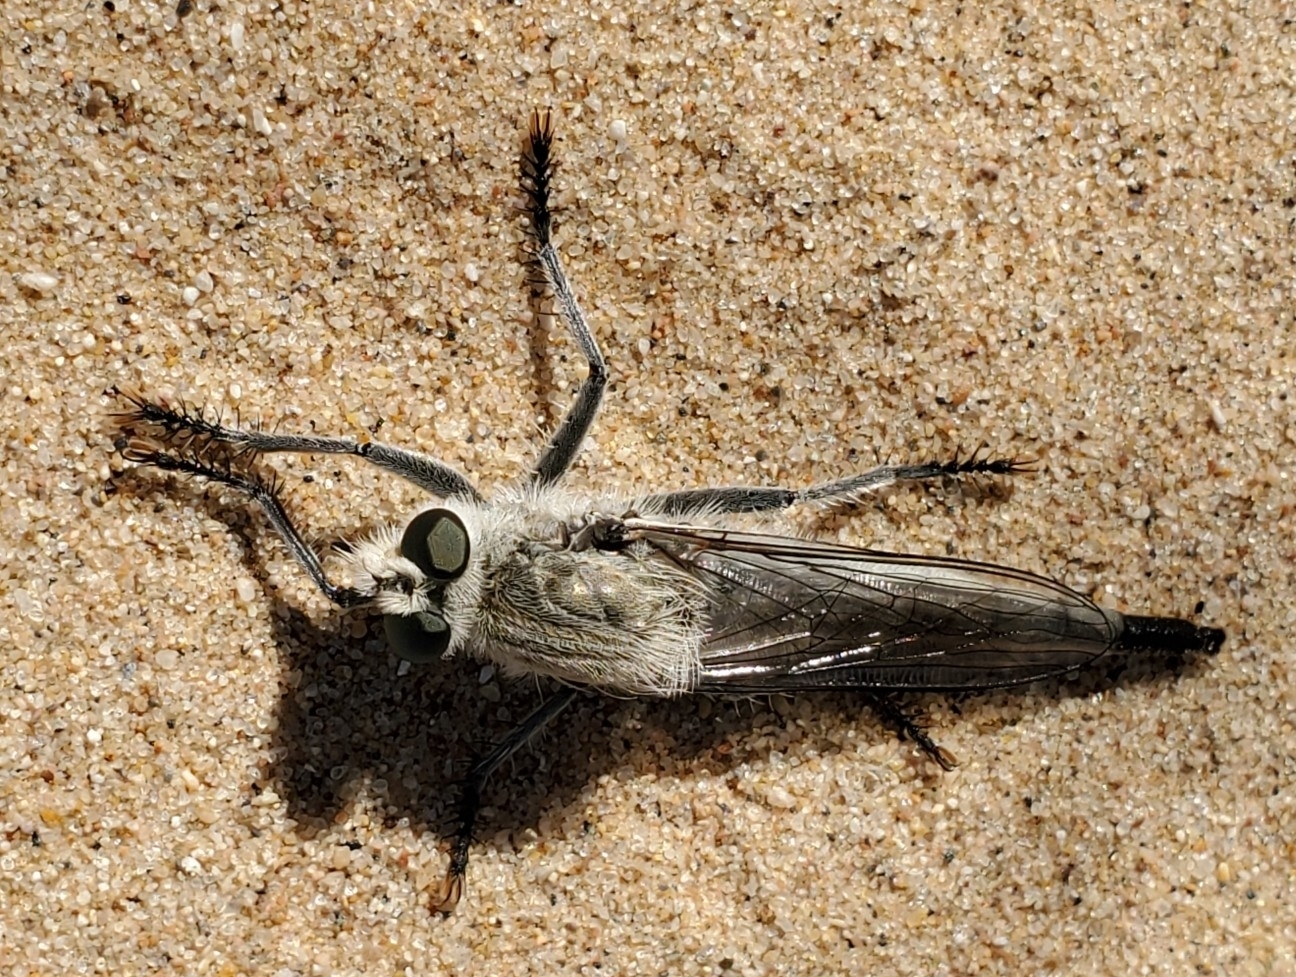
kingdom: Animalia
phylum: Arthropoda
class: Insecta
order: Diptera
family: Asilidae
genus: Proctacanthus
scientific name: Proctacanthus coquillettii
